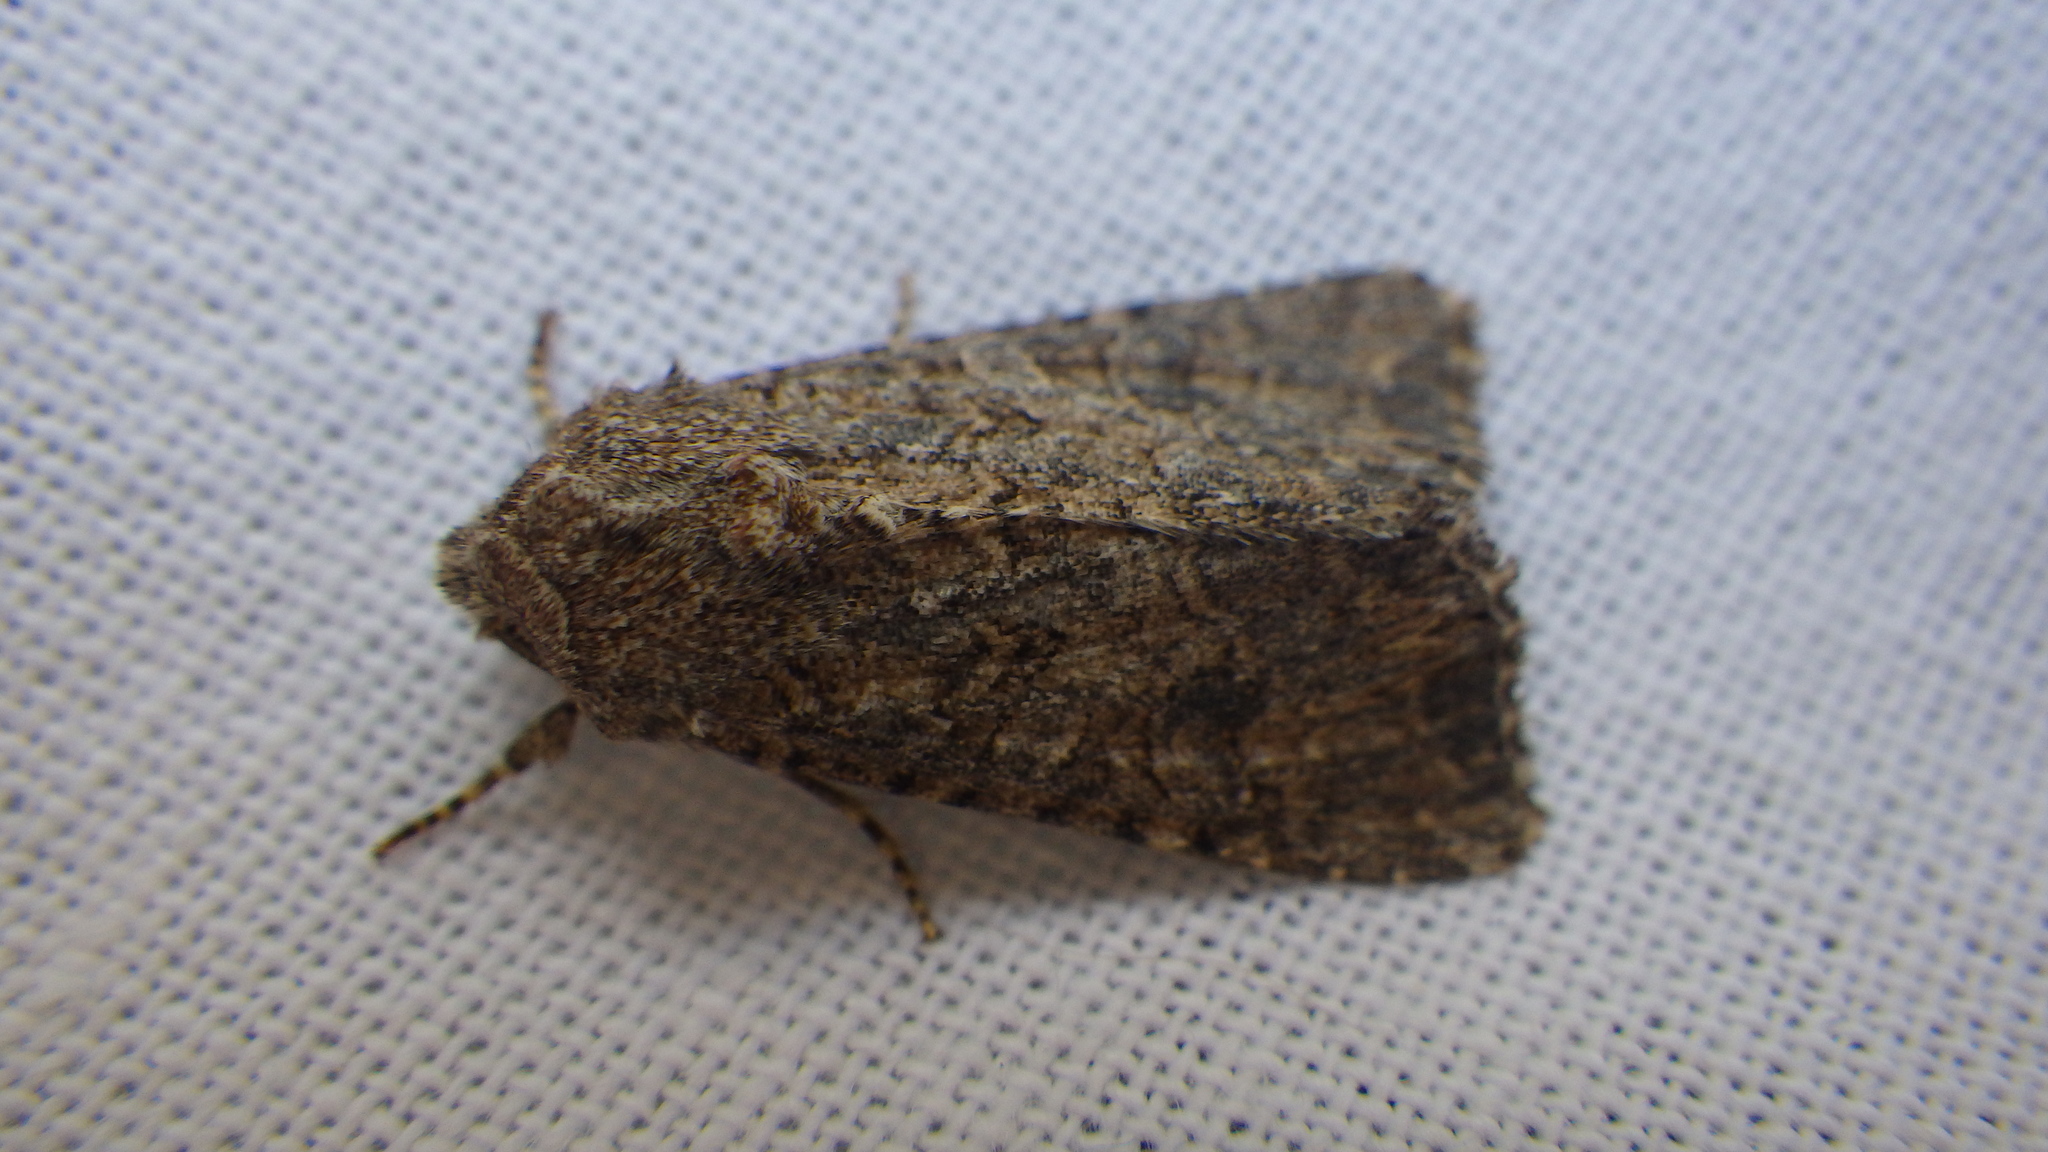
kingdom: Animalia
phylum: Arthropoda
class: Insecta
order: Lepidoptera
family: Noctuidae
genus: Anarta
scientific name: Anarta trifolii
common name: Clover cutworm moth
